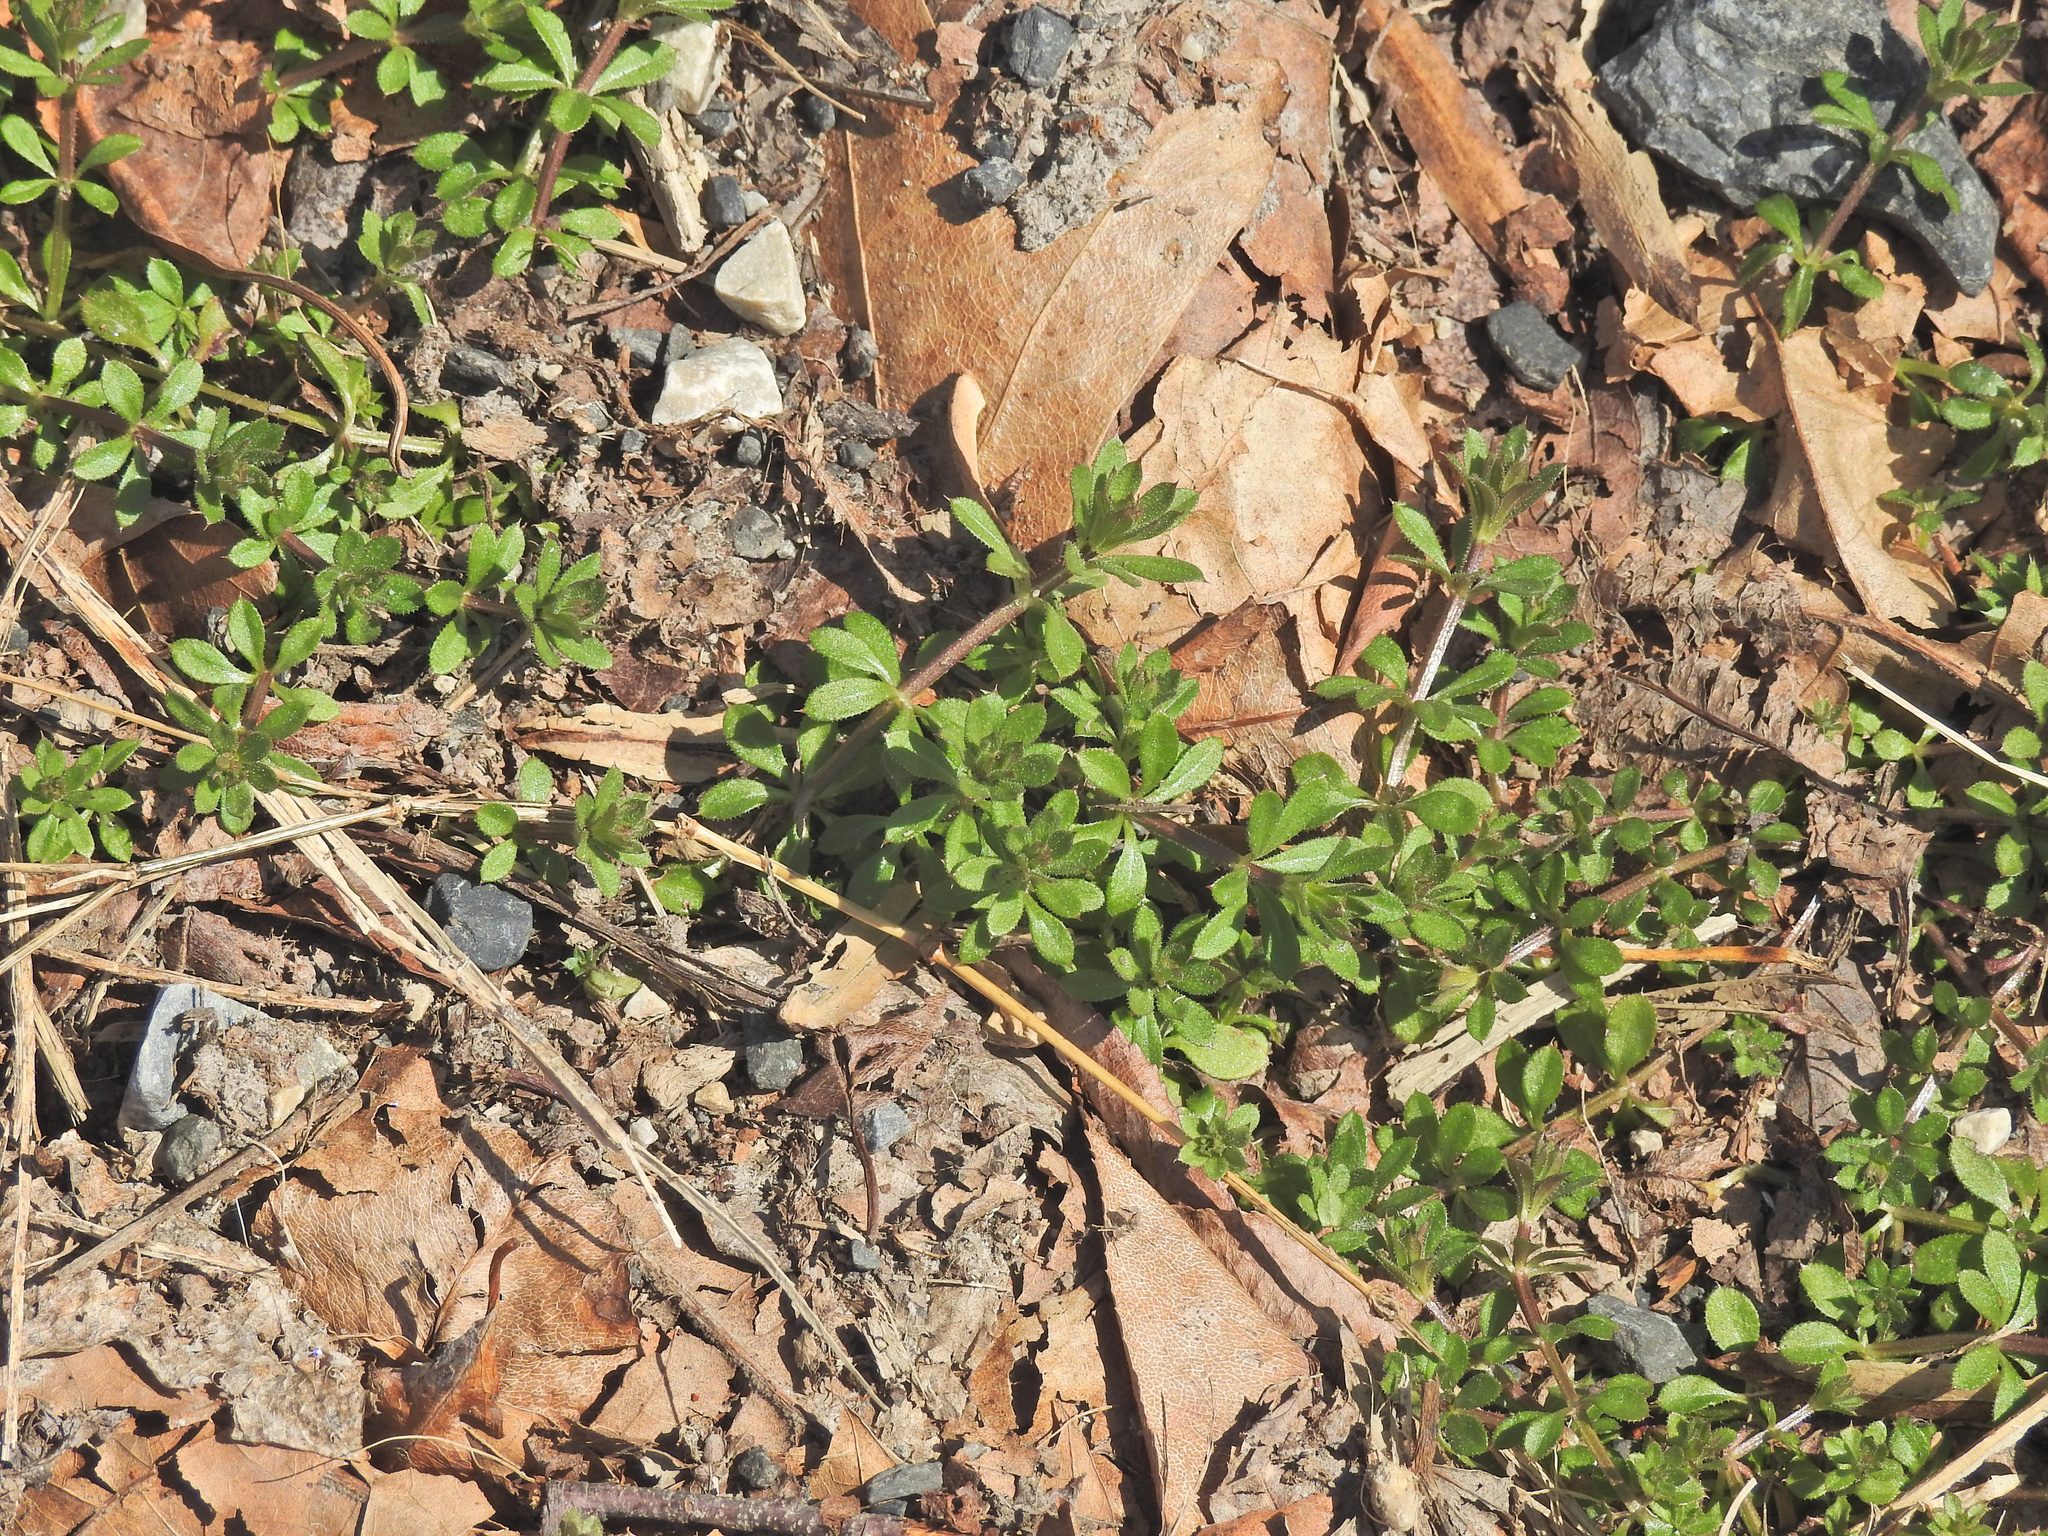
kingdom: Plantae
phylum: Tracheophyta
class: Magnoliopsida
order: Gentianales
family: Rubiaceae
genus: Galium
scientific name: Galium aparine
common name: Cleavers
